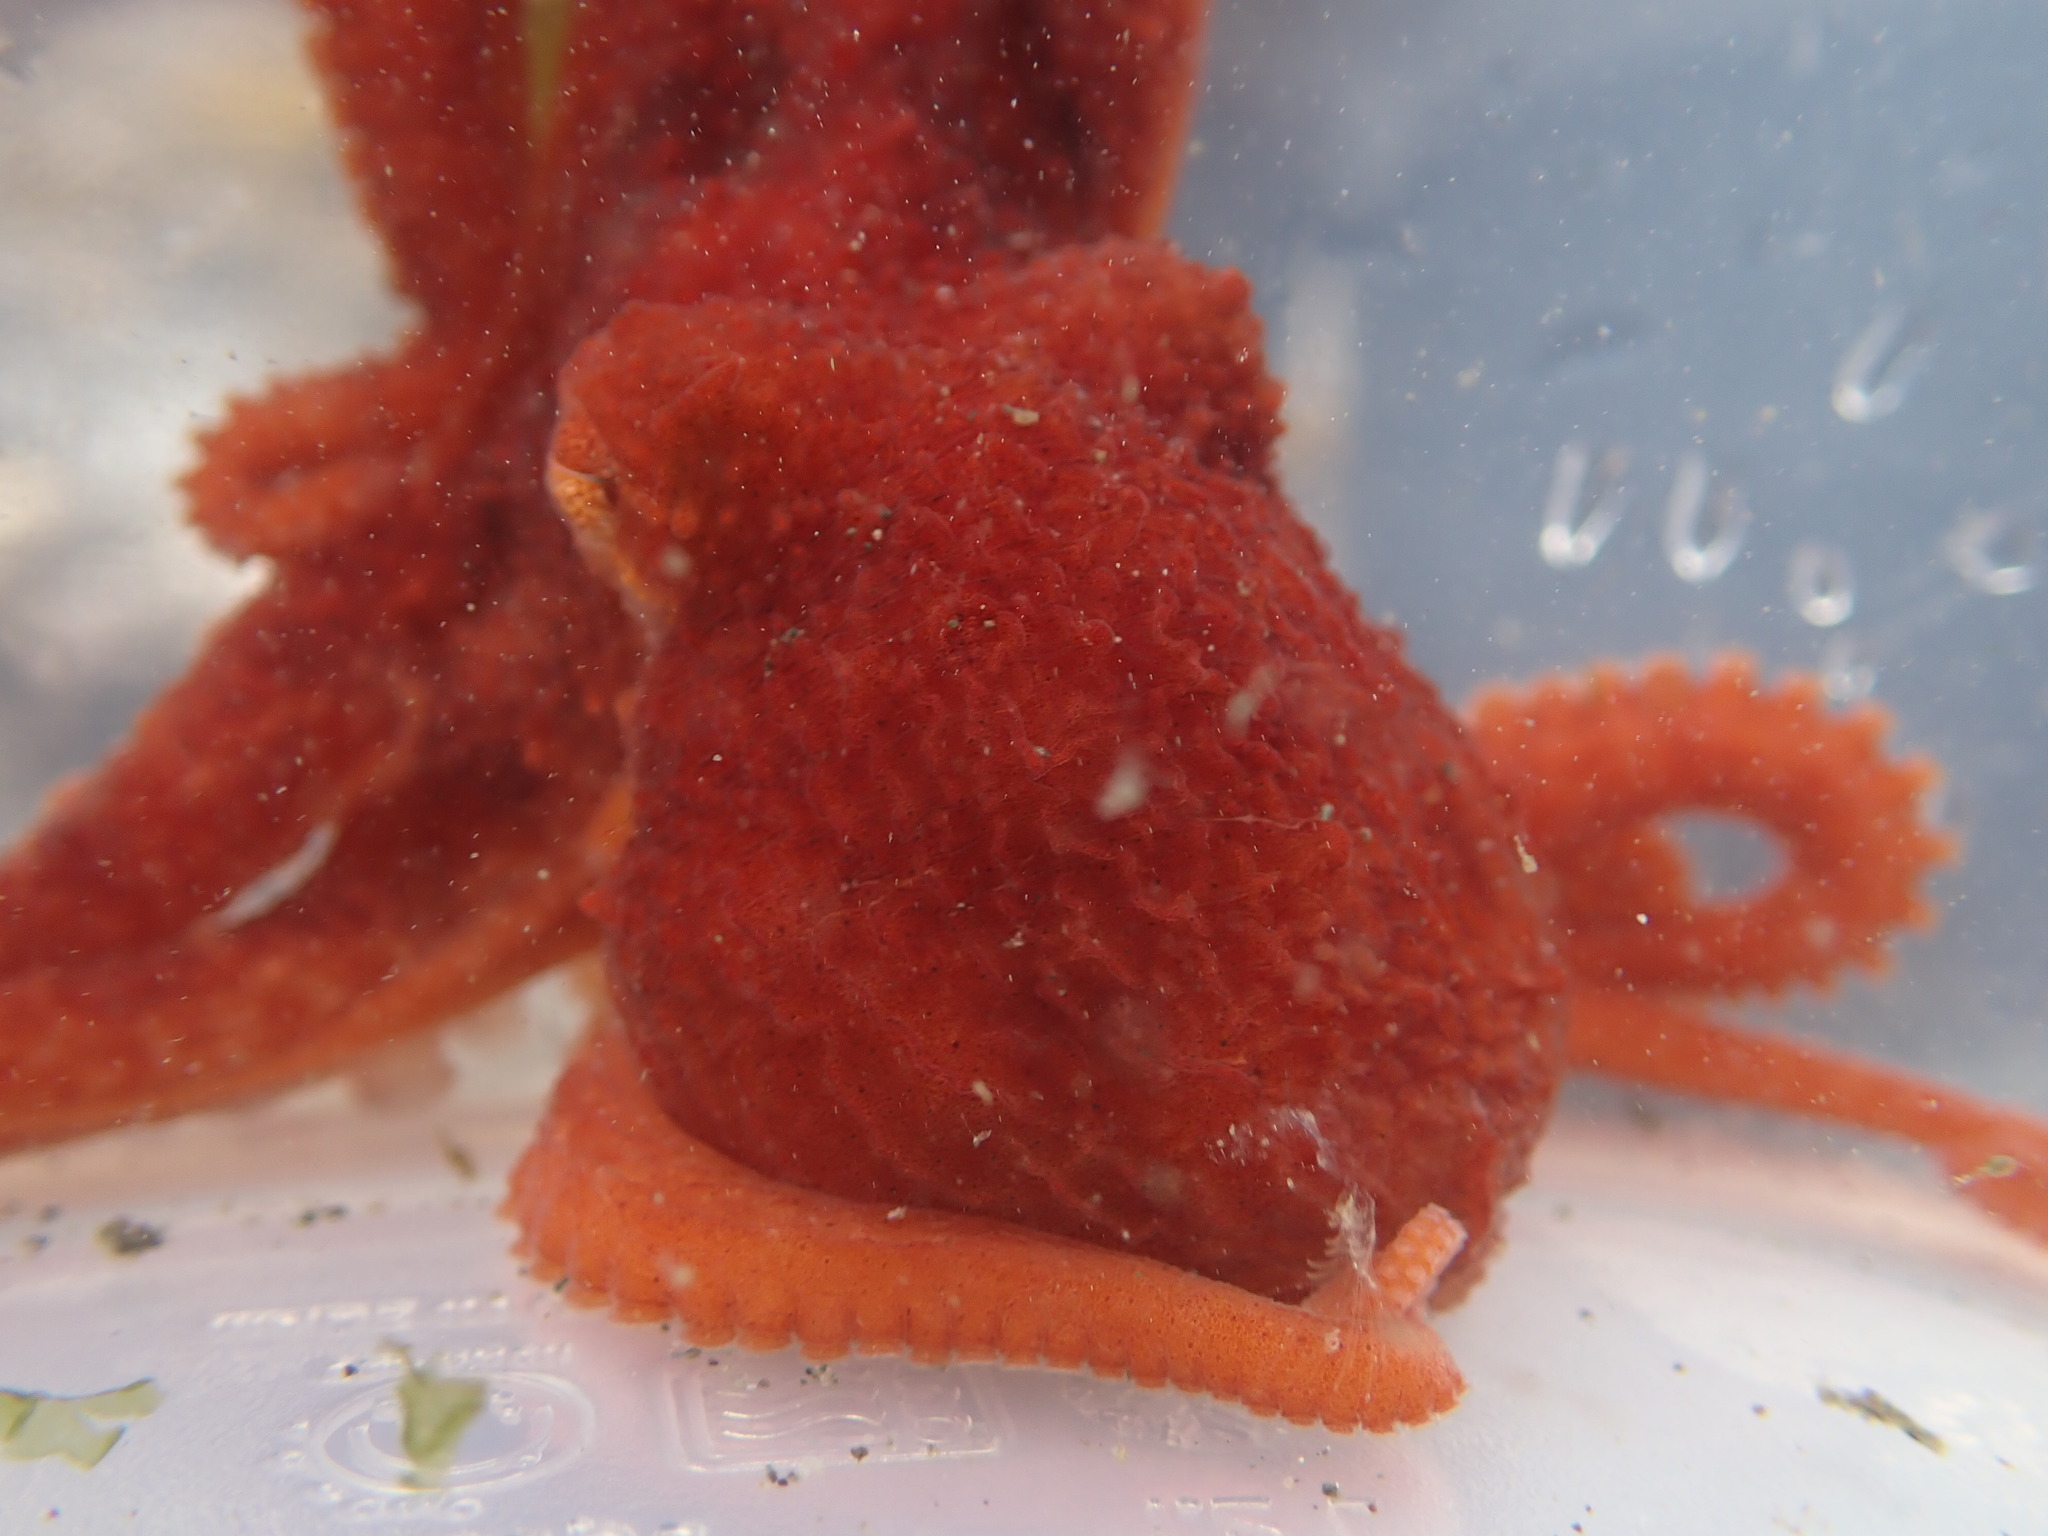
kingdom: Animalia
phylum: Mollusca
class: Cephalopoda
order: Octopoda
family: Enteroctopodidae
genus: Enteroctopus
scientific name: Enteroctopus dofleini
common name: Giant north pacific octopus
